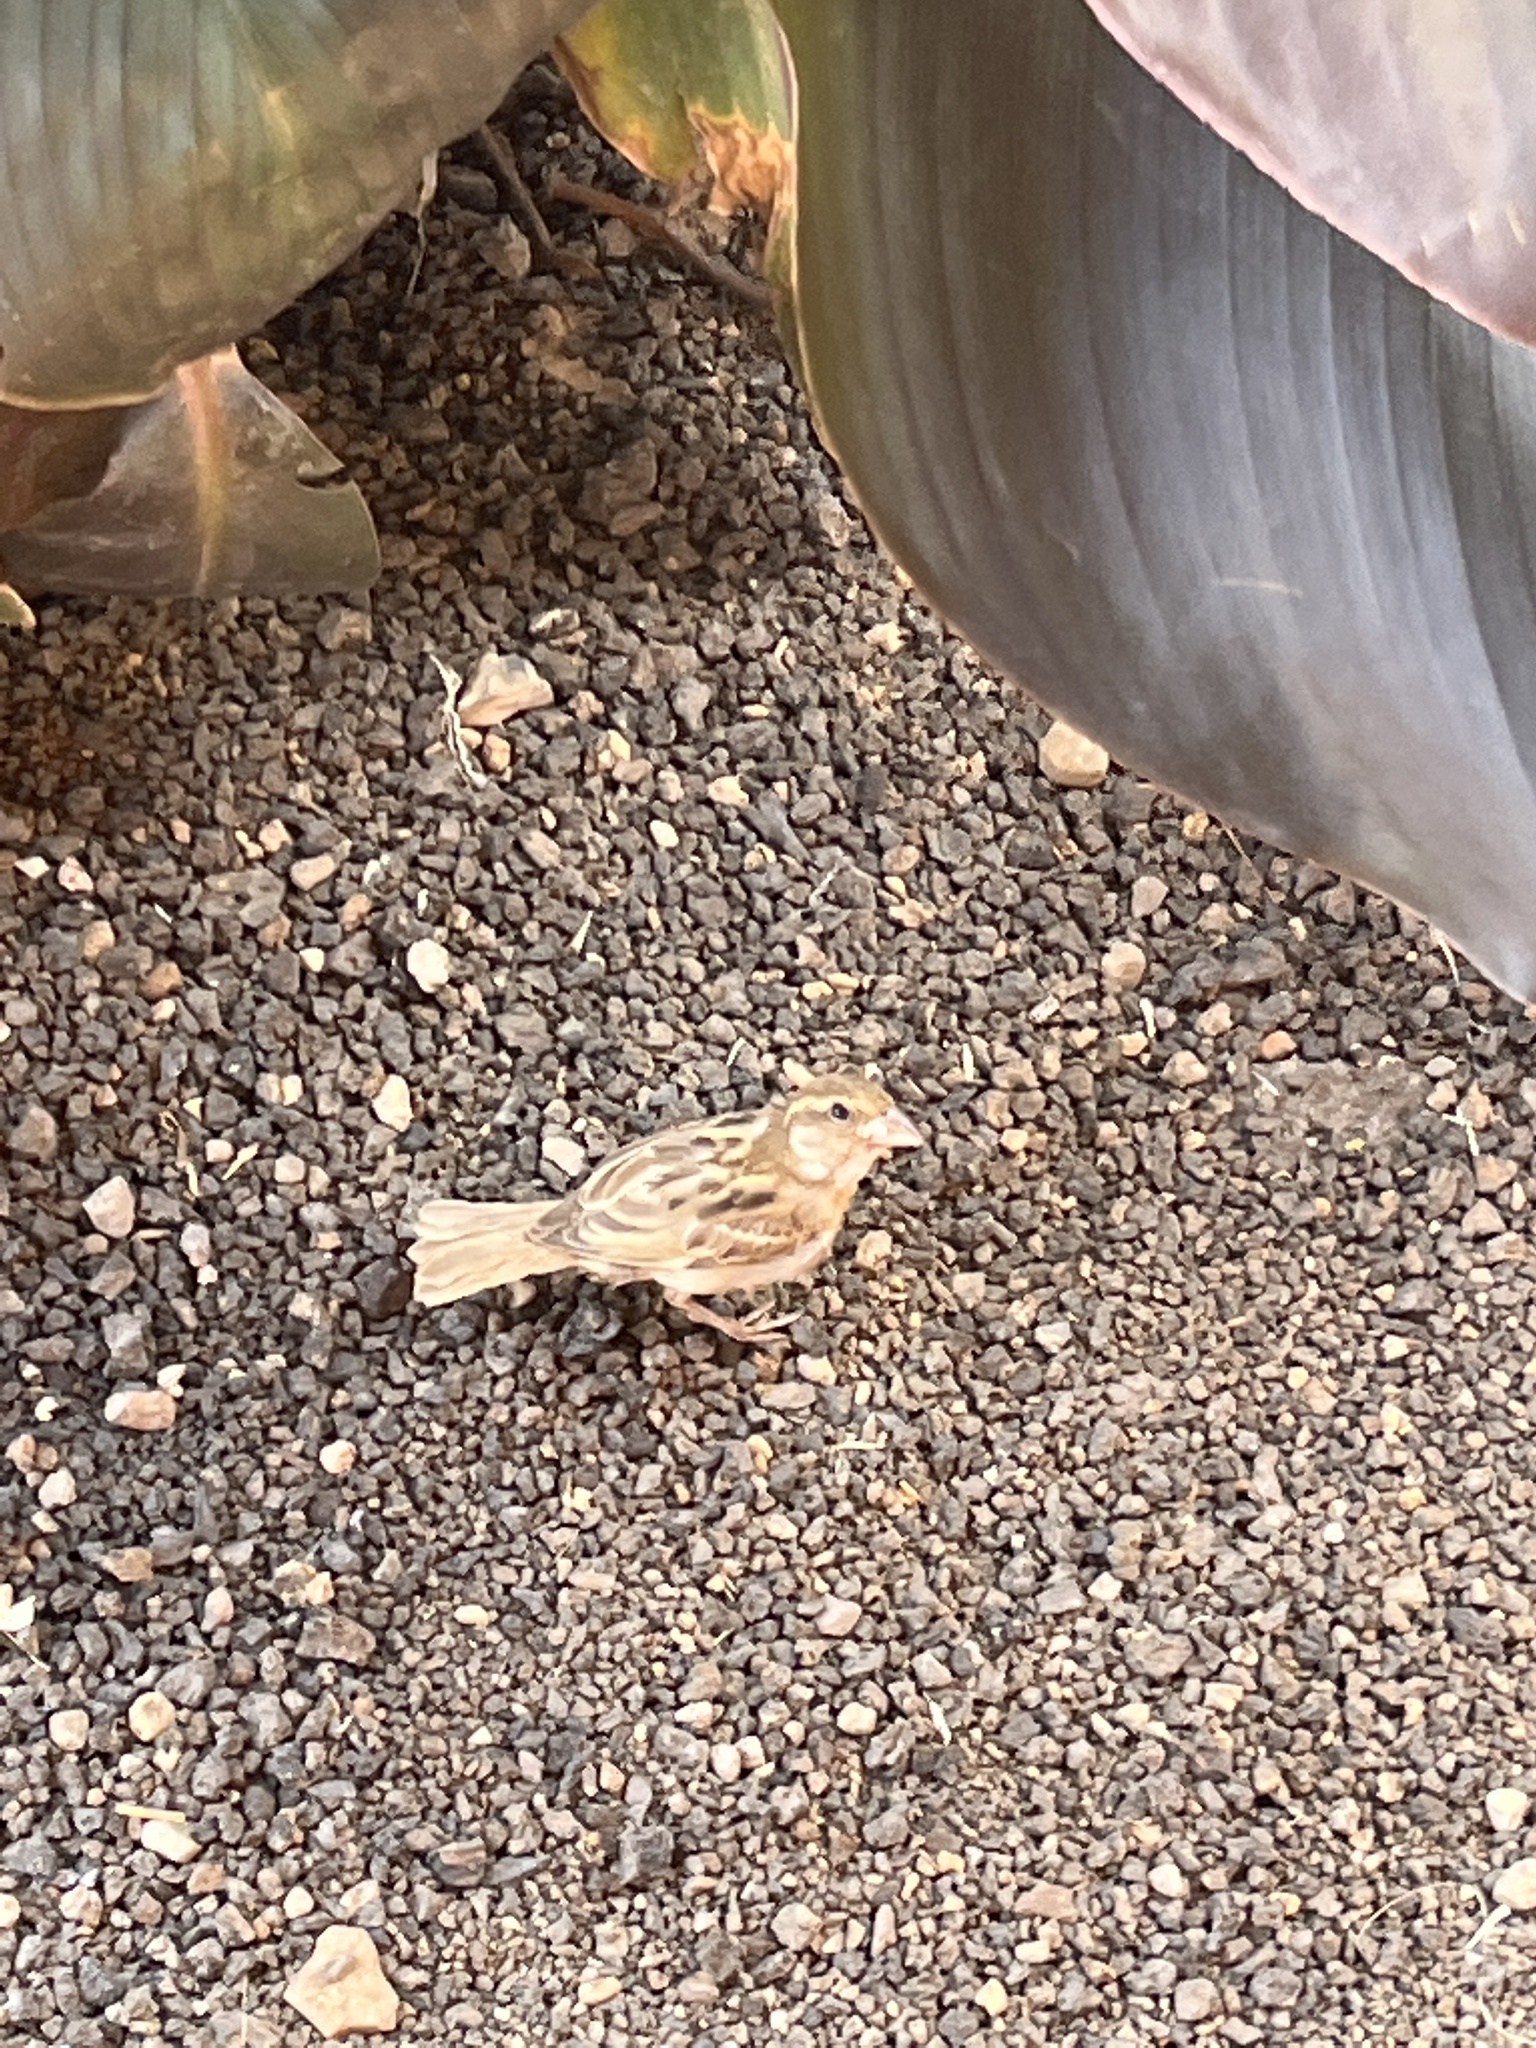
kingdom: Animalia
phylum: Chordata
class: Aves
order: Passeriformes
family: Passeridae
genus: Passer
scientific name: Passer domesticus
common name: House sparrow
